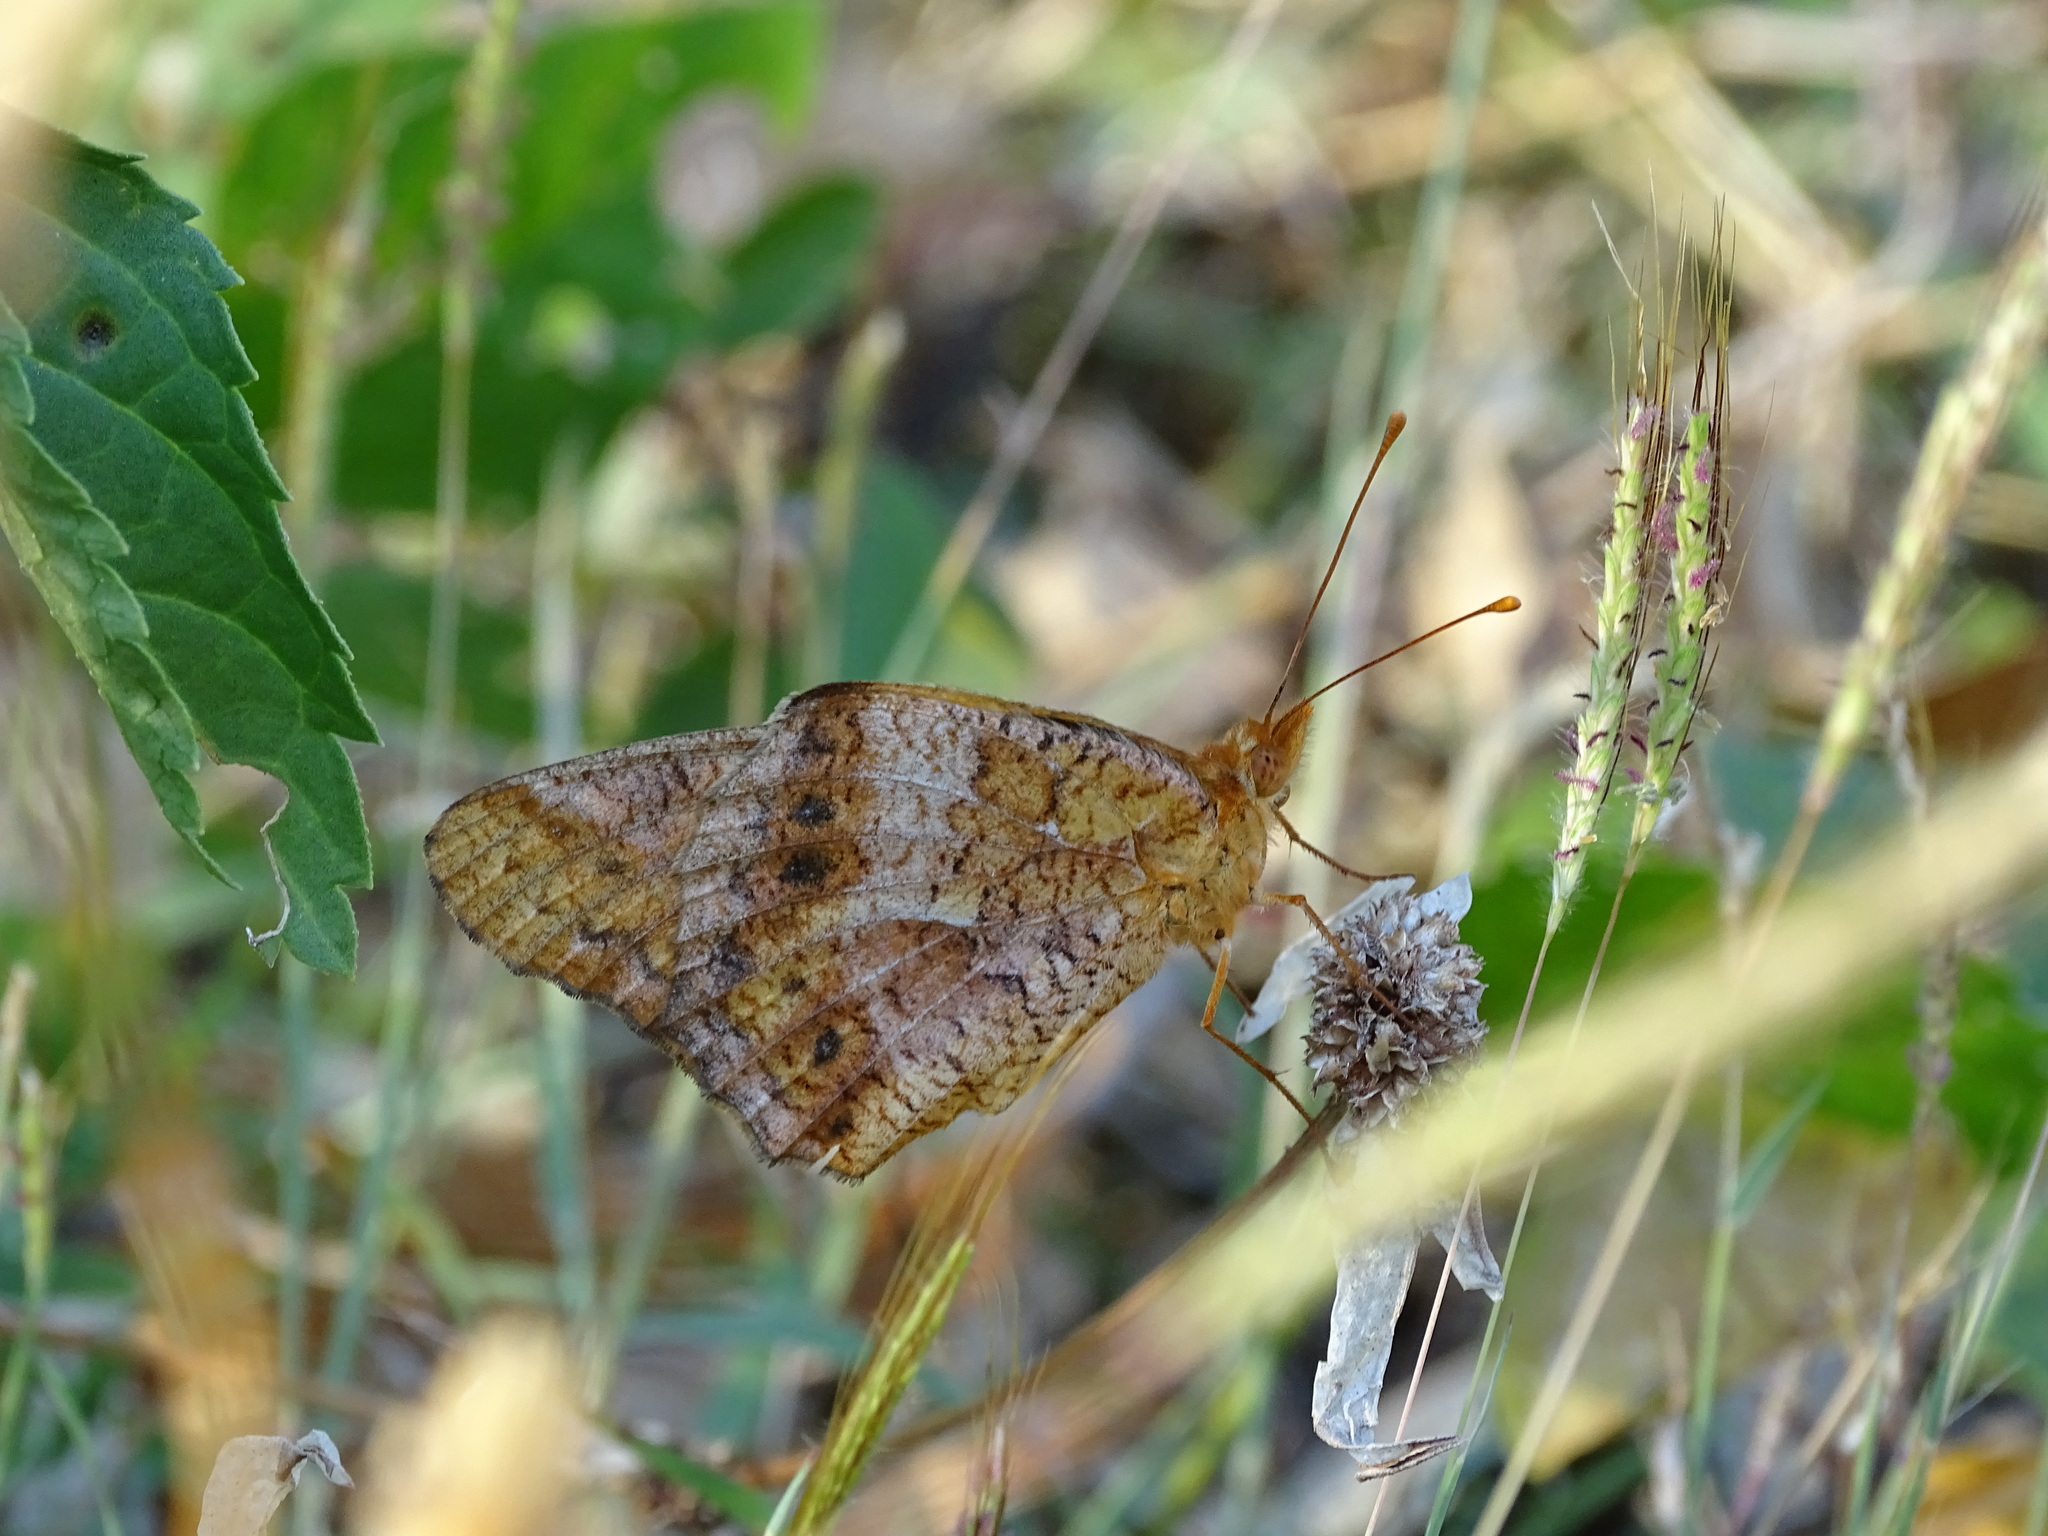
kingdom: Animalia
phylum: Arthropoda
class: Insecta
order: Lepidoptera
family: Nymphalidae
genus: Euptoieta
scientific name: Euptoieta hegesia
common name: Mexican fritillary
